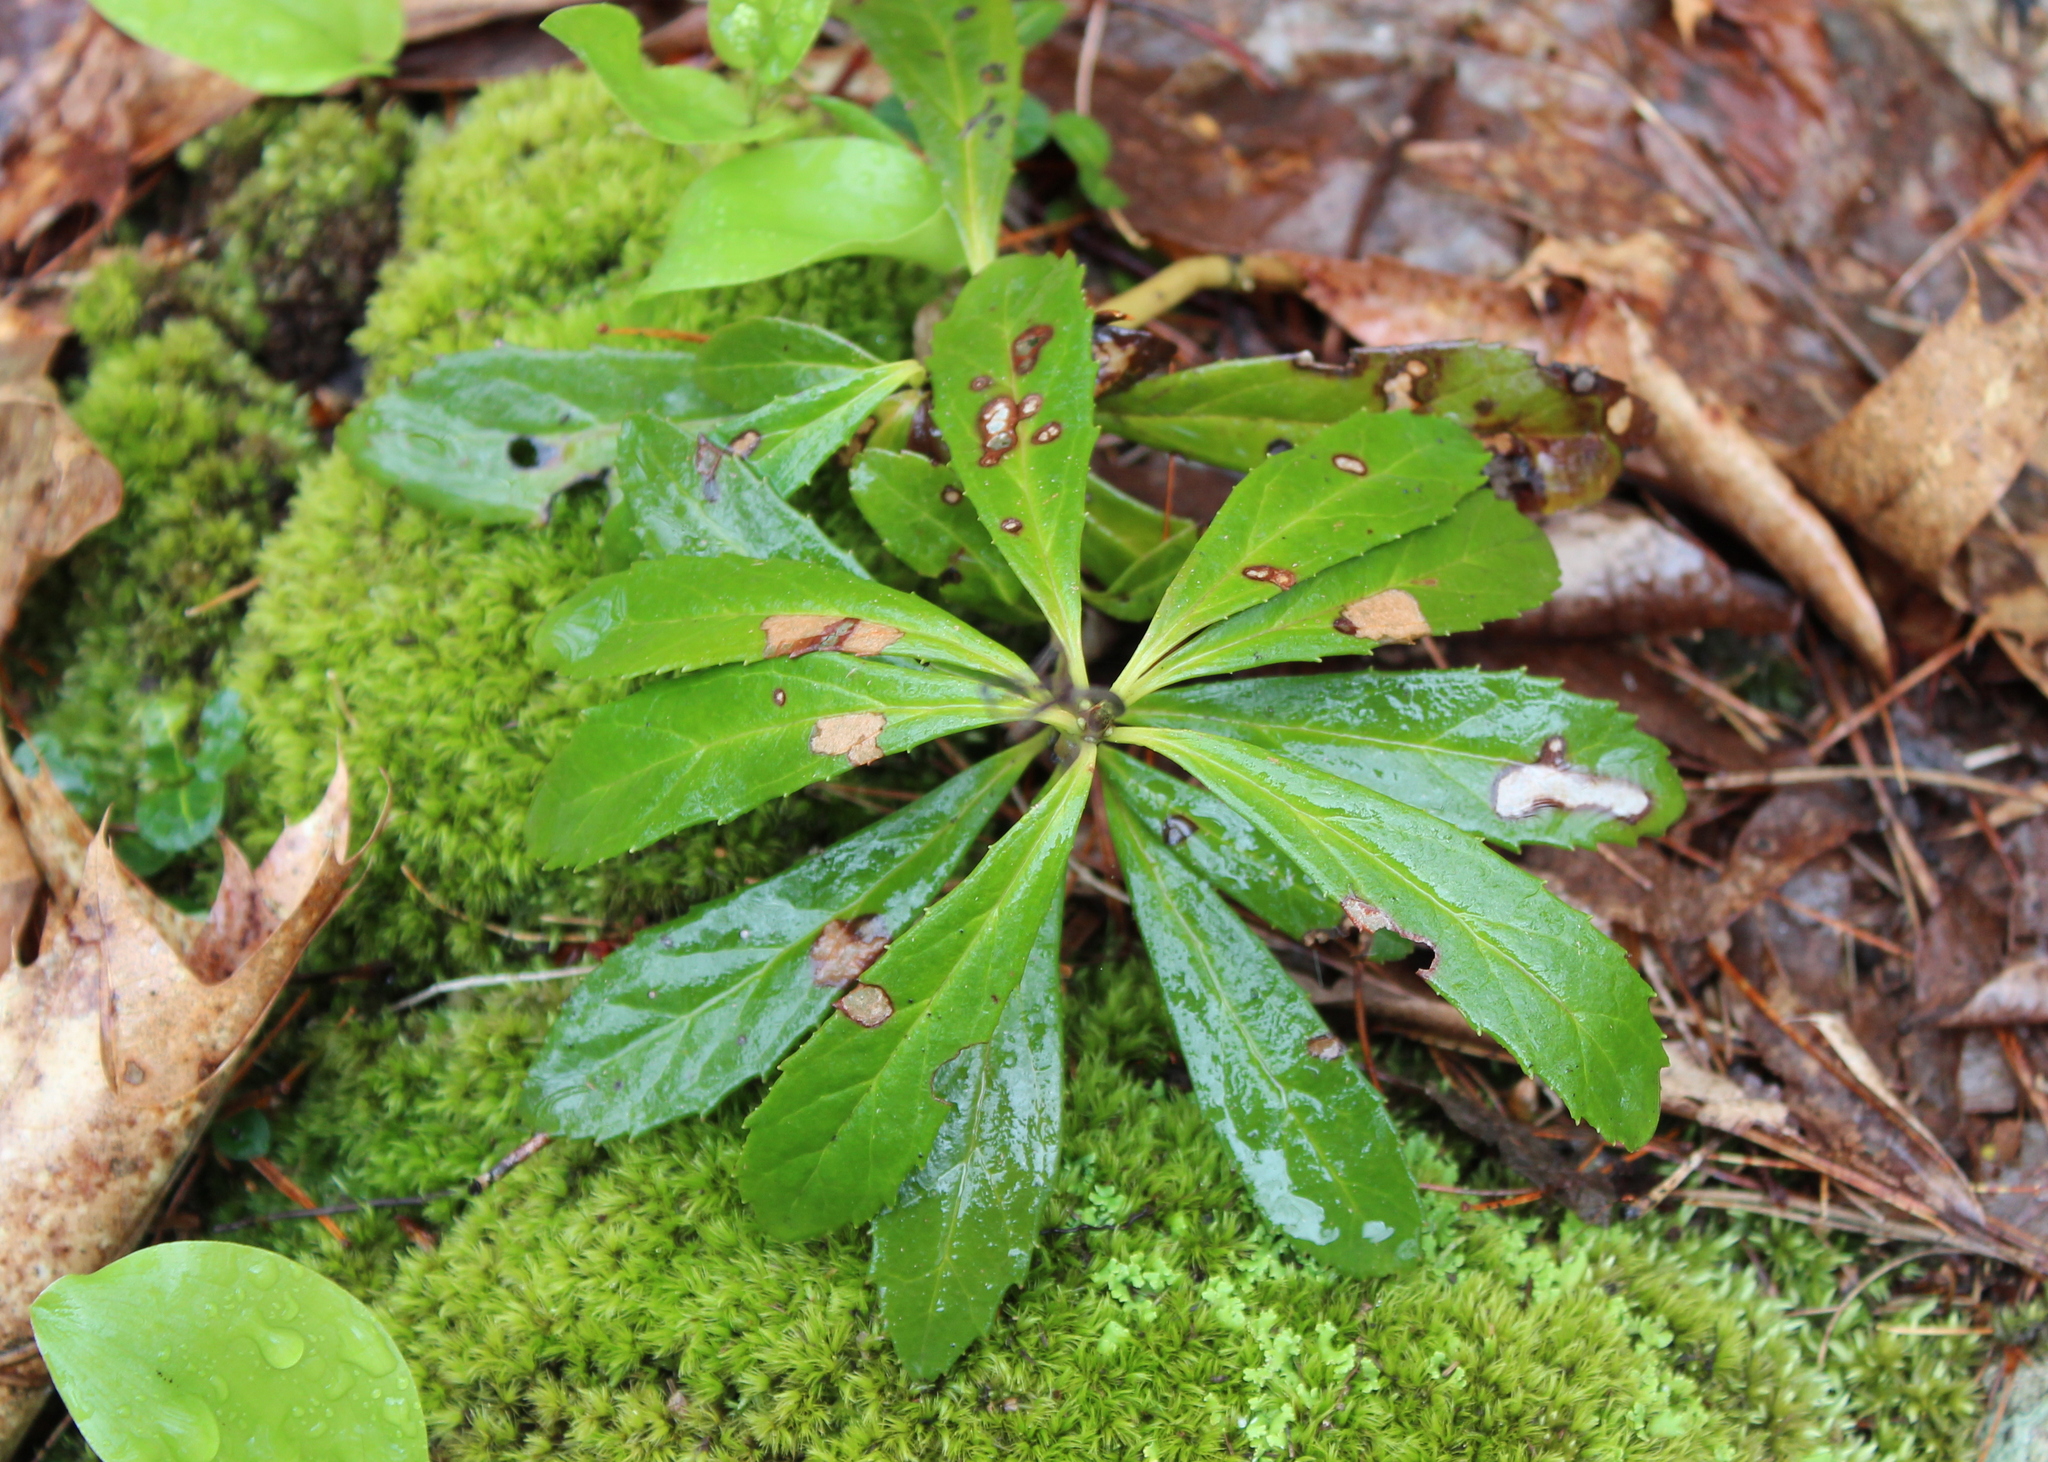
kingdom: Plantae
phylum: Tracheophyta
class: Magnoliopsida
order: Ericales
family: Ericaceae
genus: Chimaphila
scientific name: Chimaphila umbellata
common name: Pipsissewa
